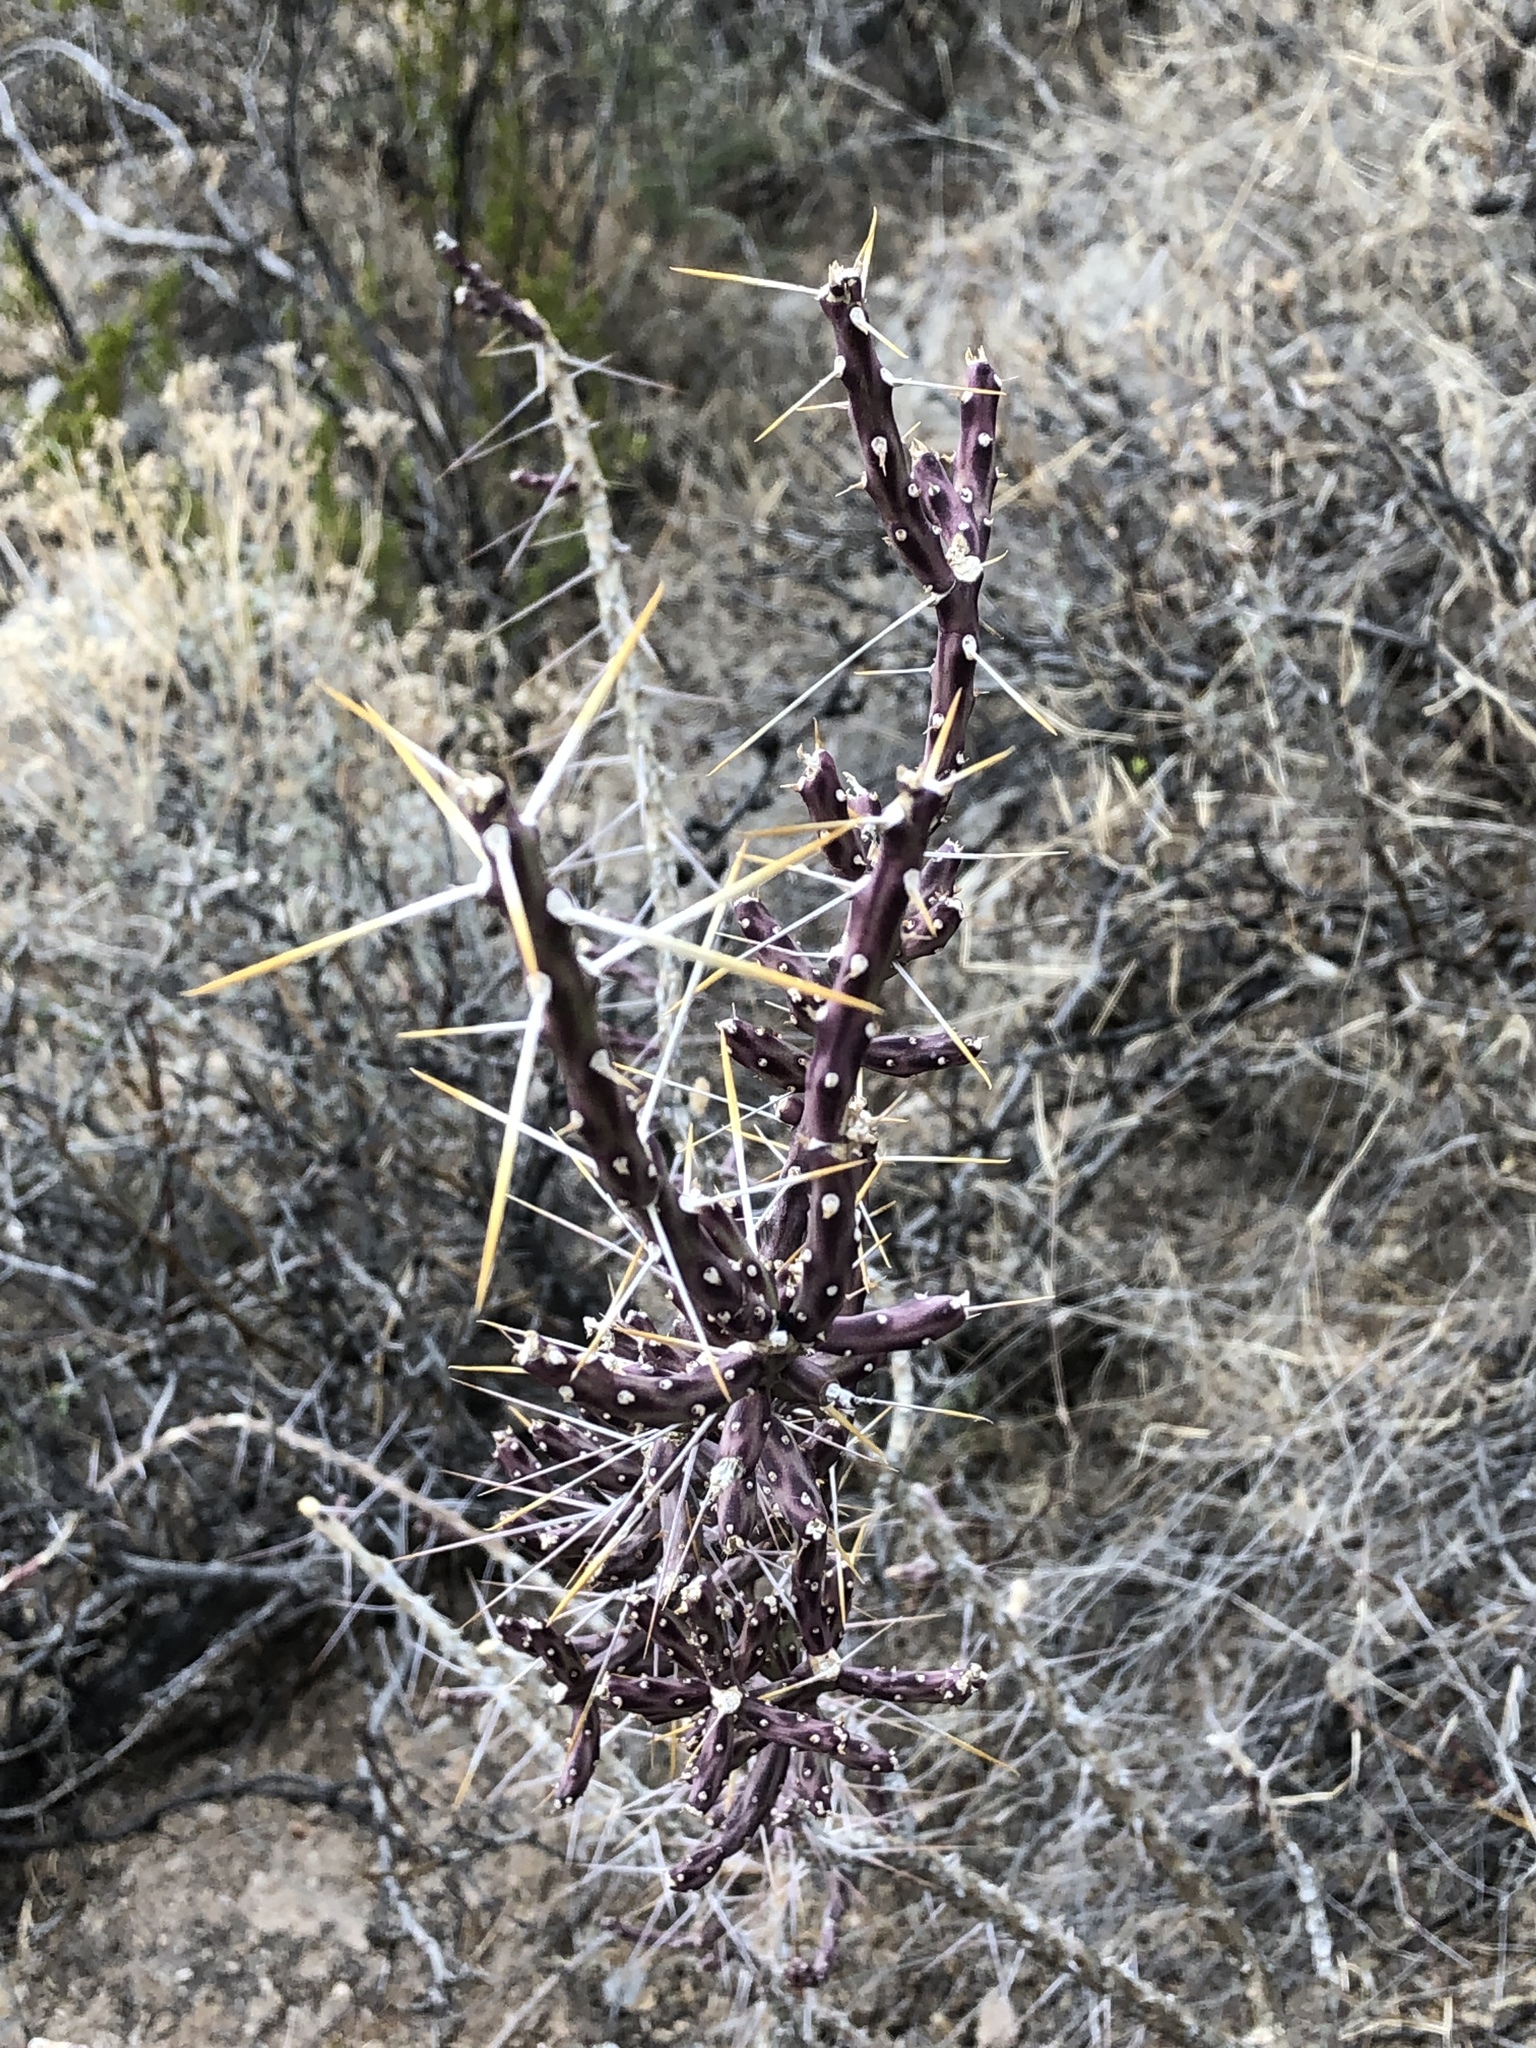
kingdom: Plantae
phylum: Tracheophyta
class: Magnoliopsida
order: Caryophyllales
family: Cactaceae
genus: Cylindropuntia
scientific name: Cylindropuntia leptocaulis
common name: Christmas cactus
